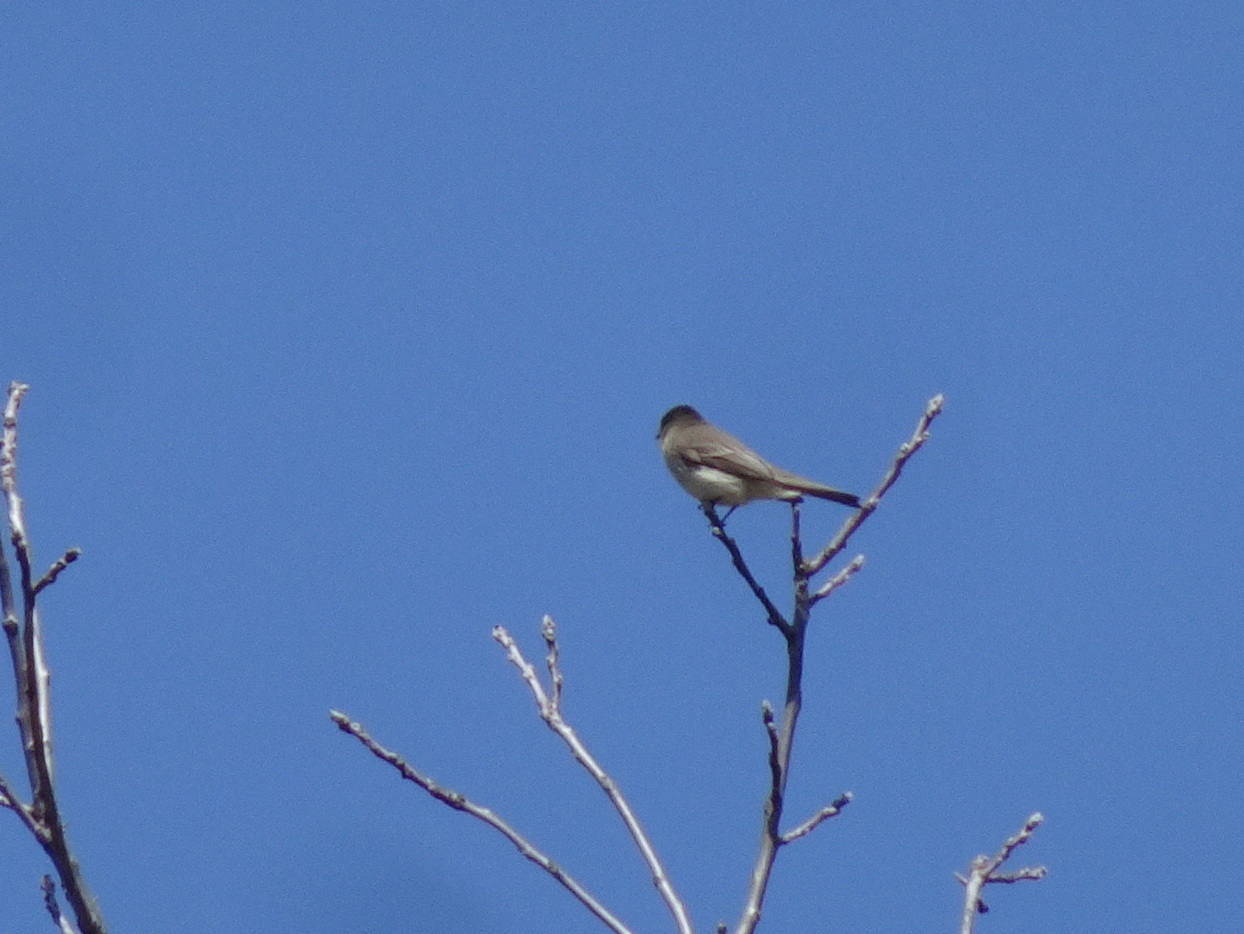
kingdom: Animalia
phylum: Chordata
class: Aves
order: Passeriformes
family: Tyrannidae
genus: Sayornis
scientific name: Sayornis phoebe
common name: Eastern phoebe
